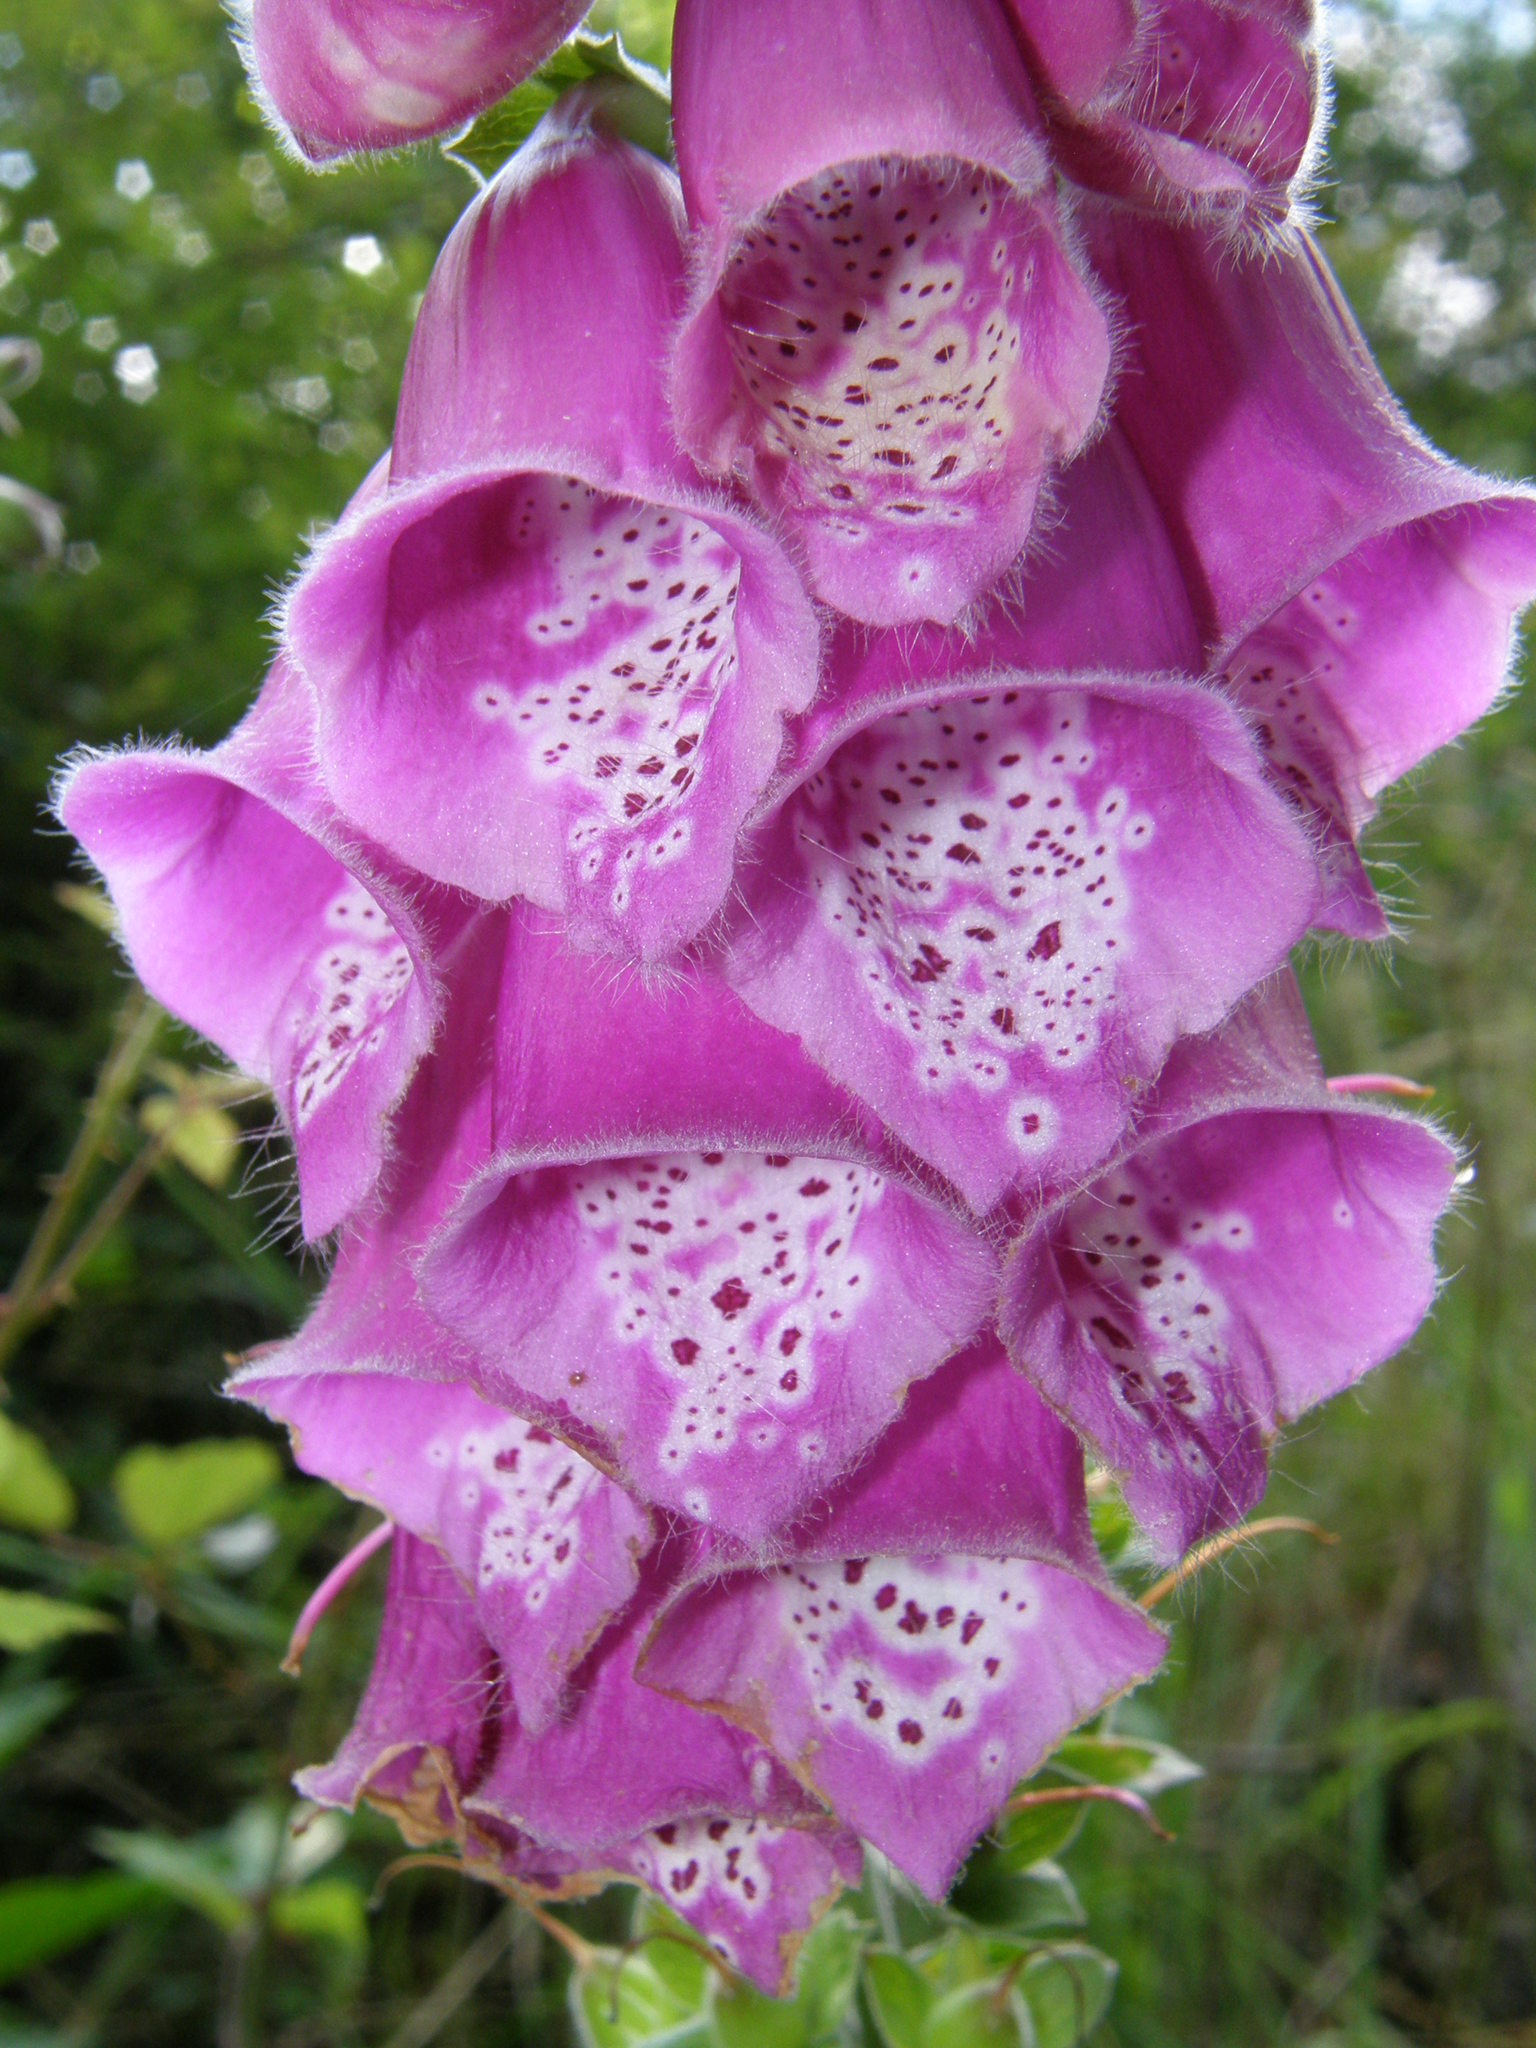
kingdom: Plantae
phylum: Tracheophyta
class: Magnoliopsida
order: Lamiales
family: Plantaginaceae
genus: Digitalis
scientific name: Digitalis purpurea
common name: Foxglove
